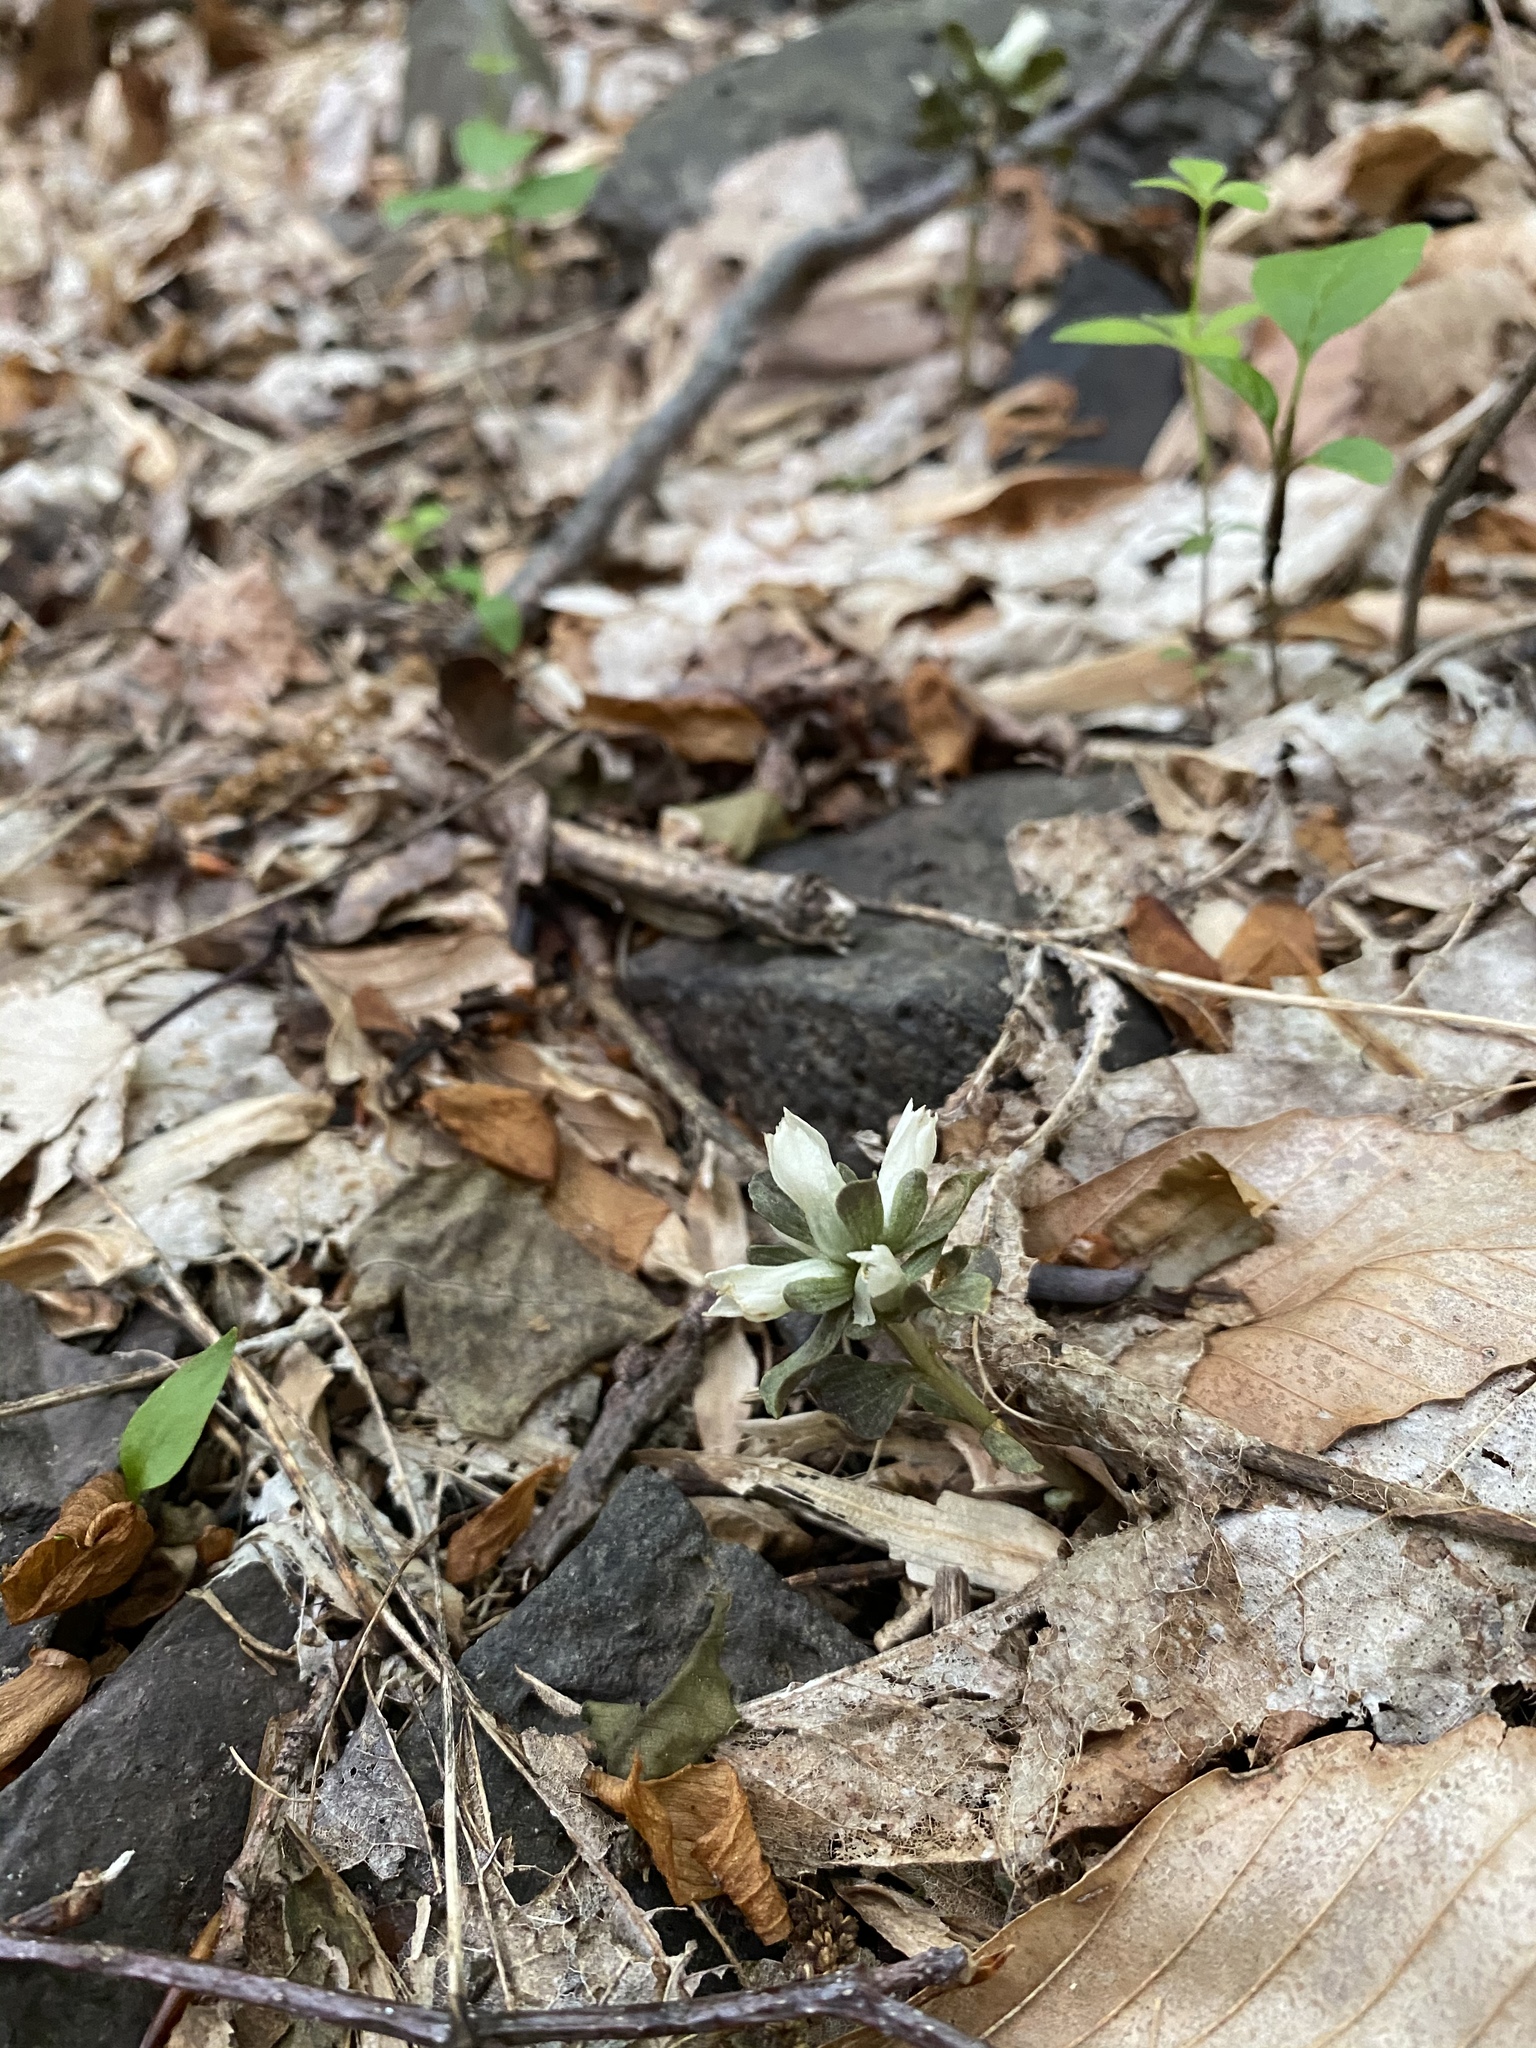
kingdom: Plantae
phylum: Tracheophyta
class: Magnoliopsida
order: Gentianales
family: Gentianaceae
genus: Obolaria
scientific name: Obolaria virginica
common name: Pennywort
